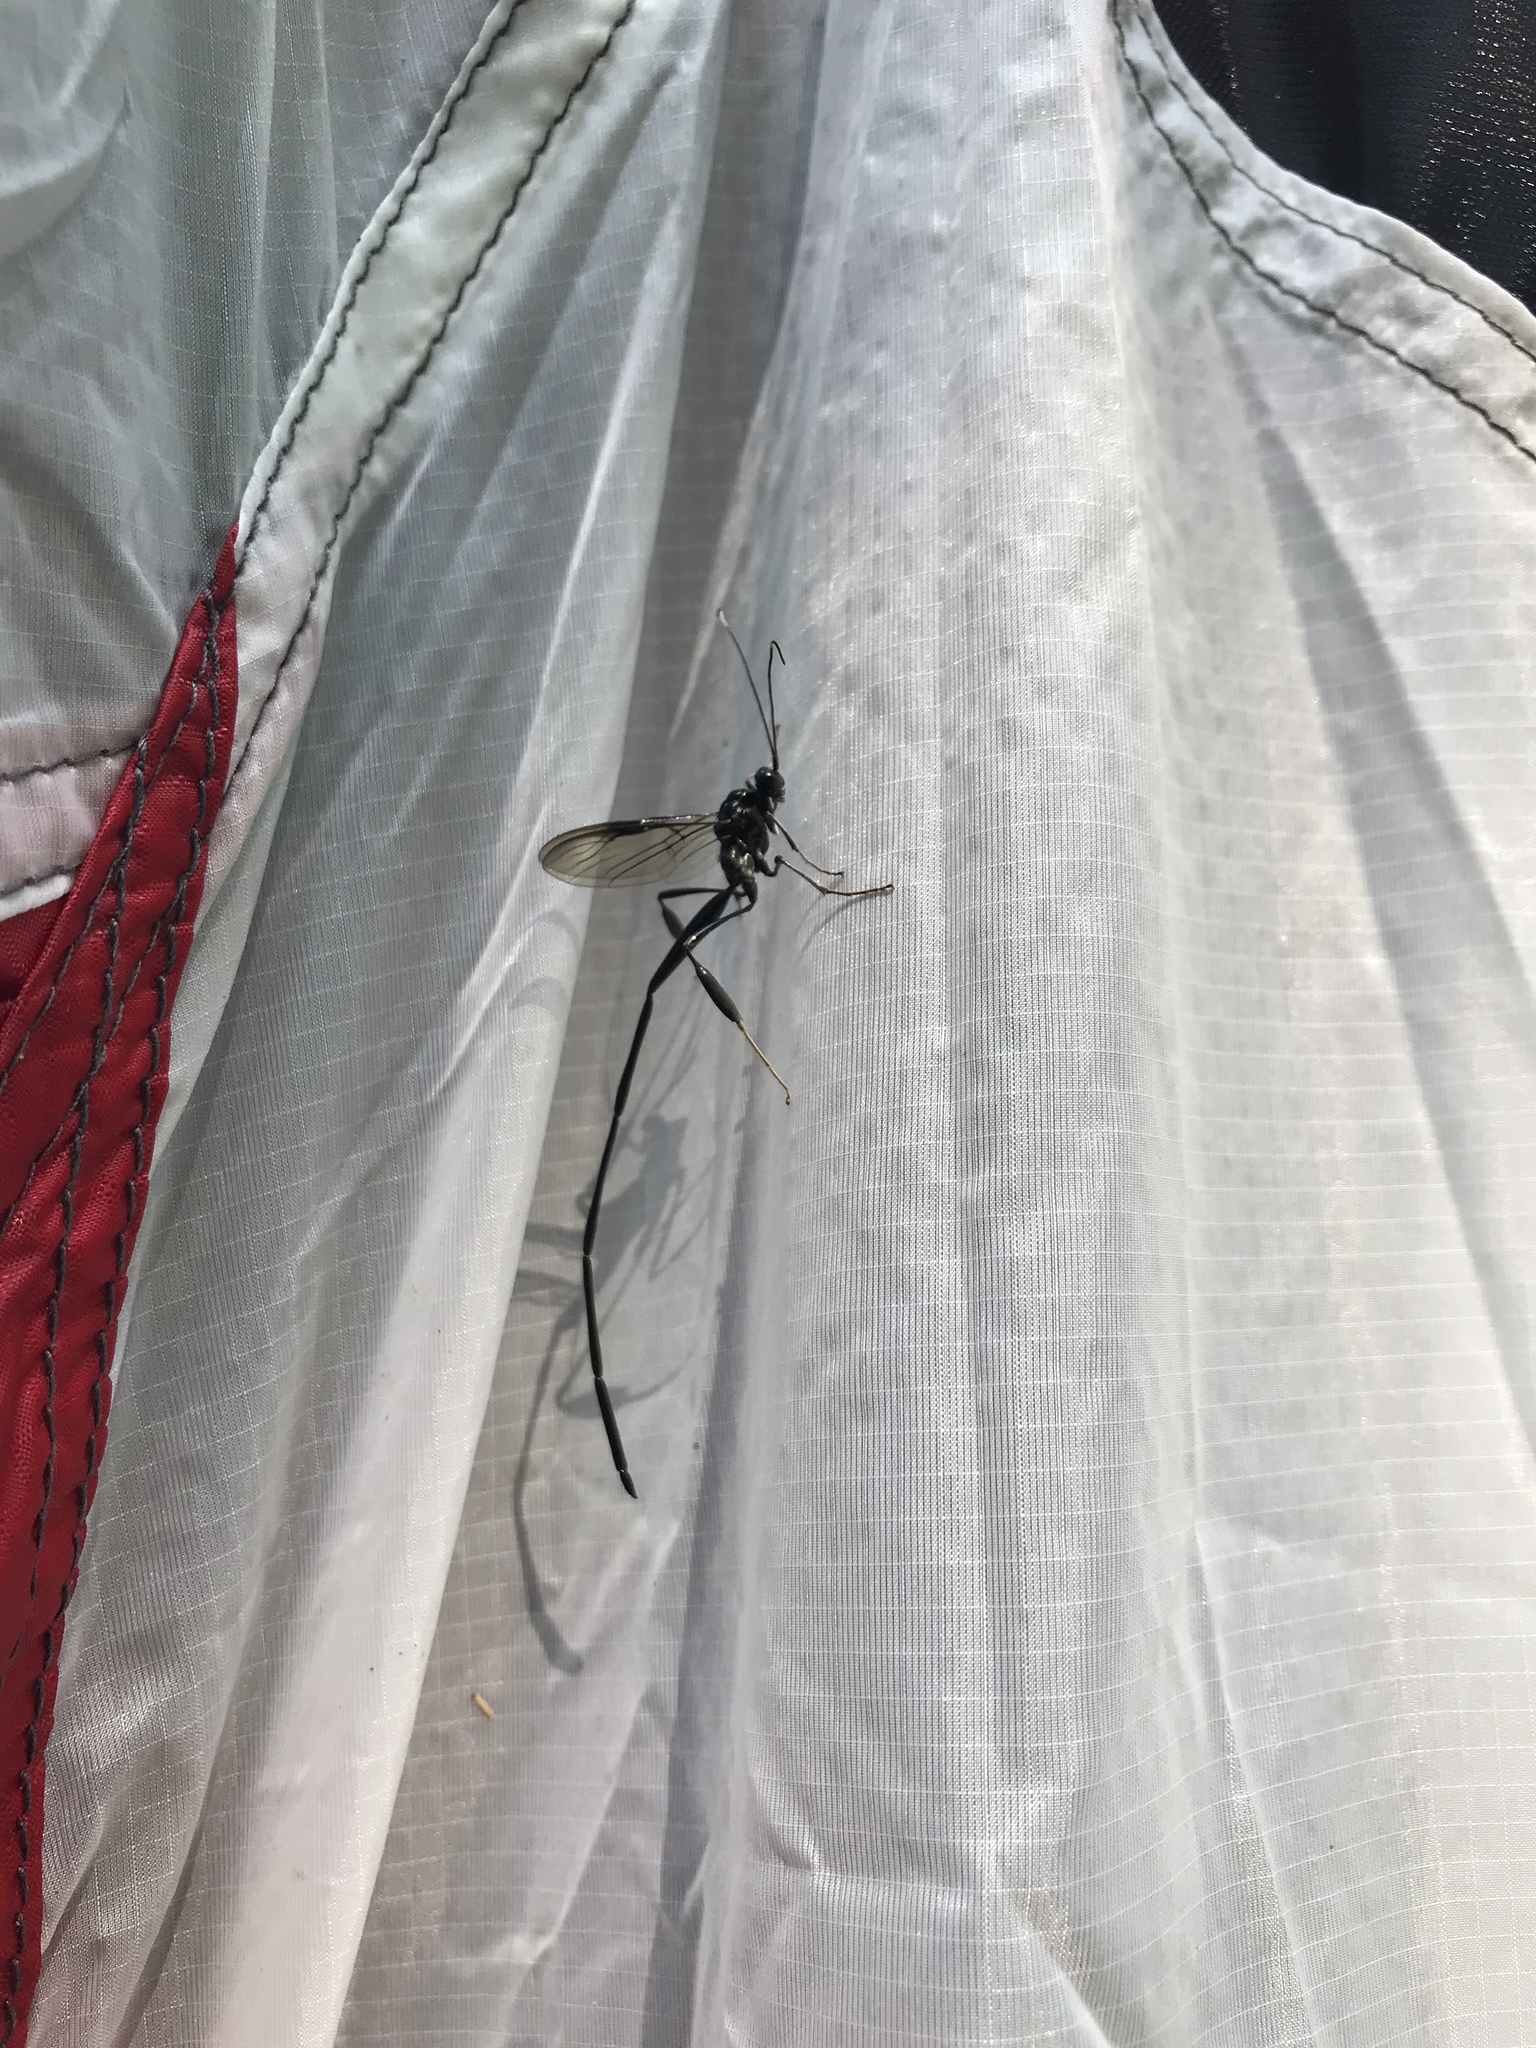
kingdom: Animalia
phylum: Arthropoda
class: Insecta
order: Hymenoptera
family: Pelecinidae
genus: Pelecinus
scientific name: Pelecinus polyturator
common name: American pelecinid wasp
